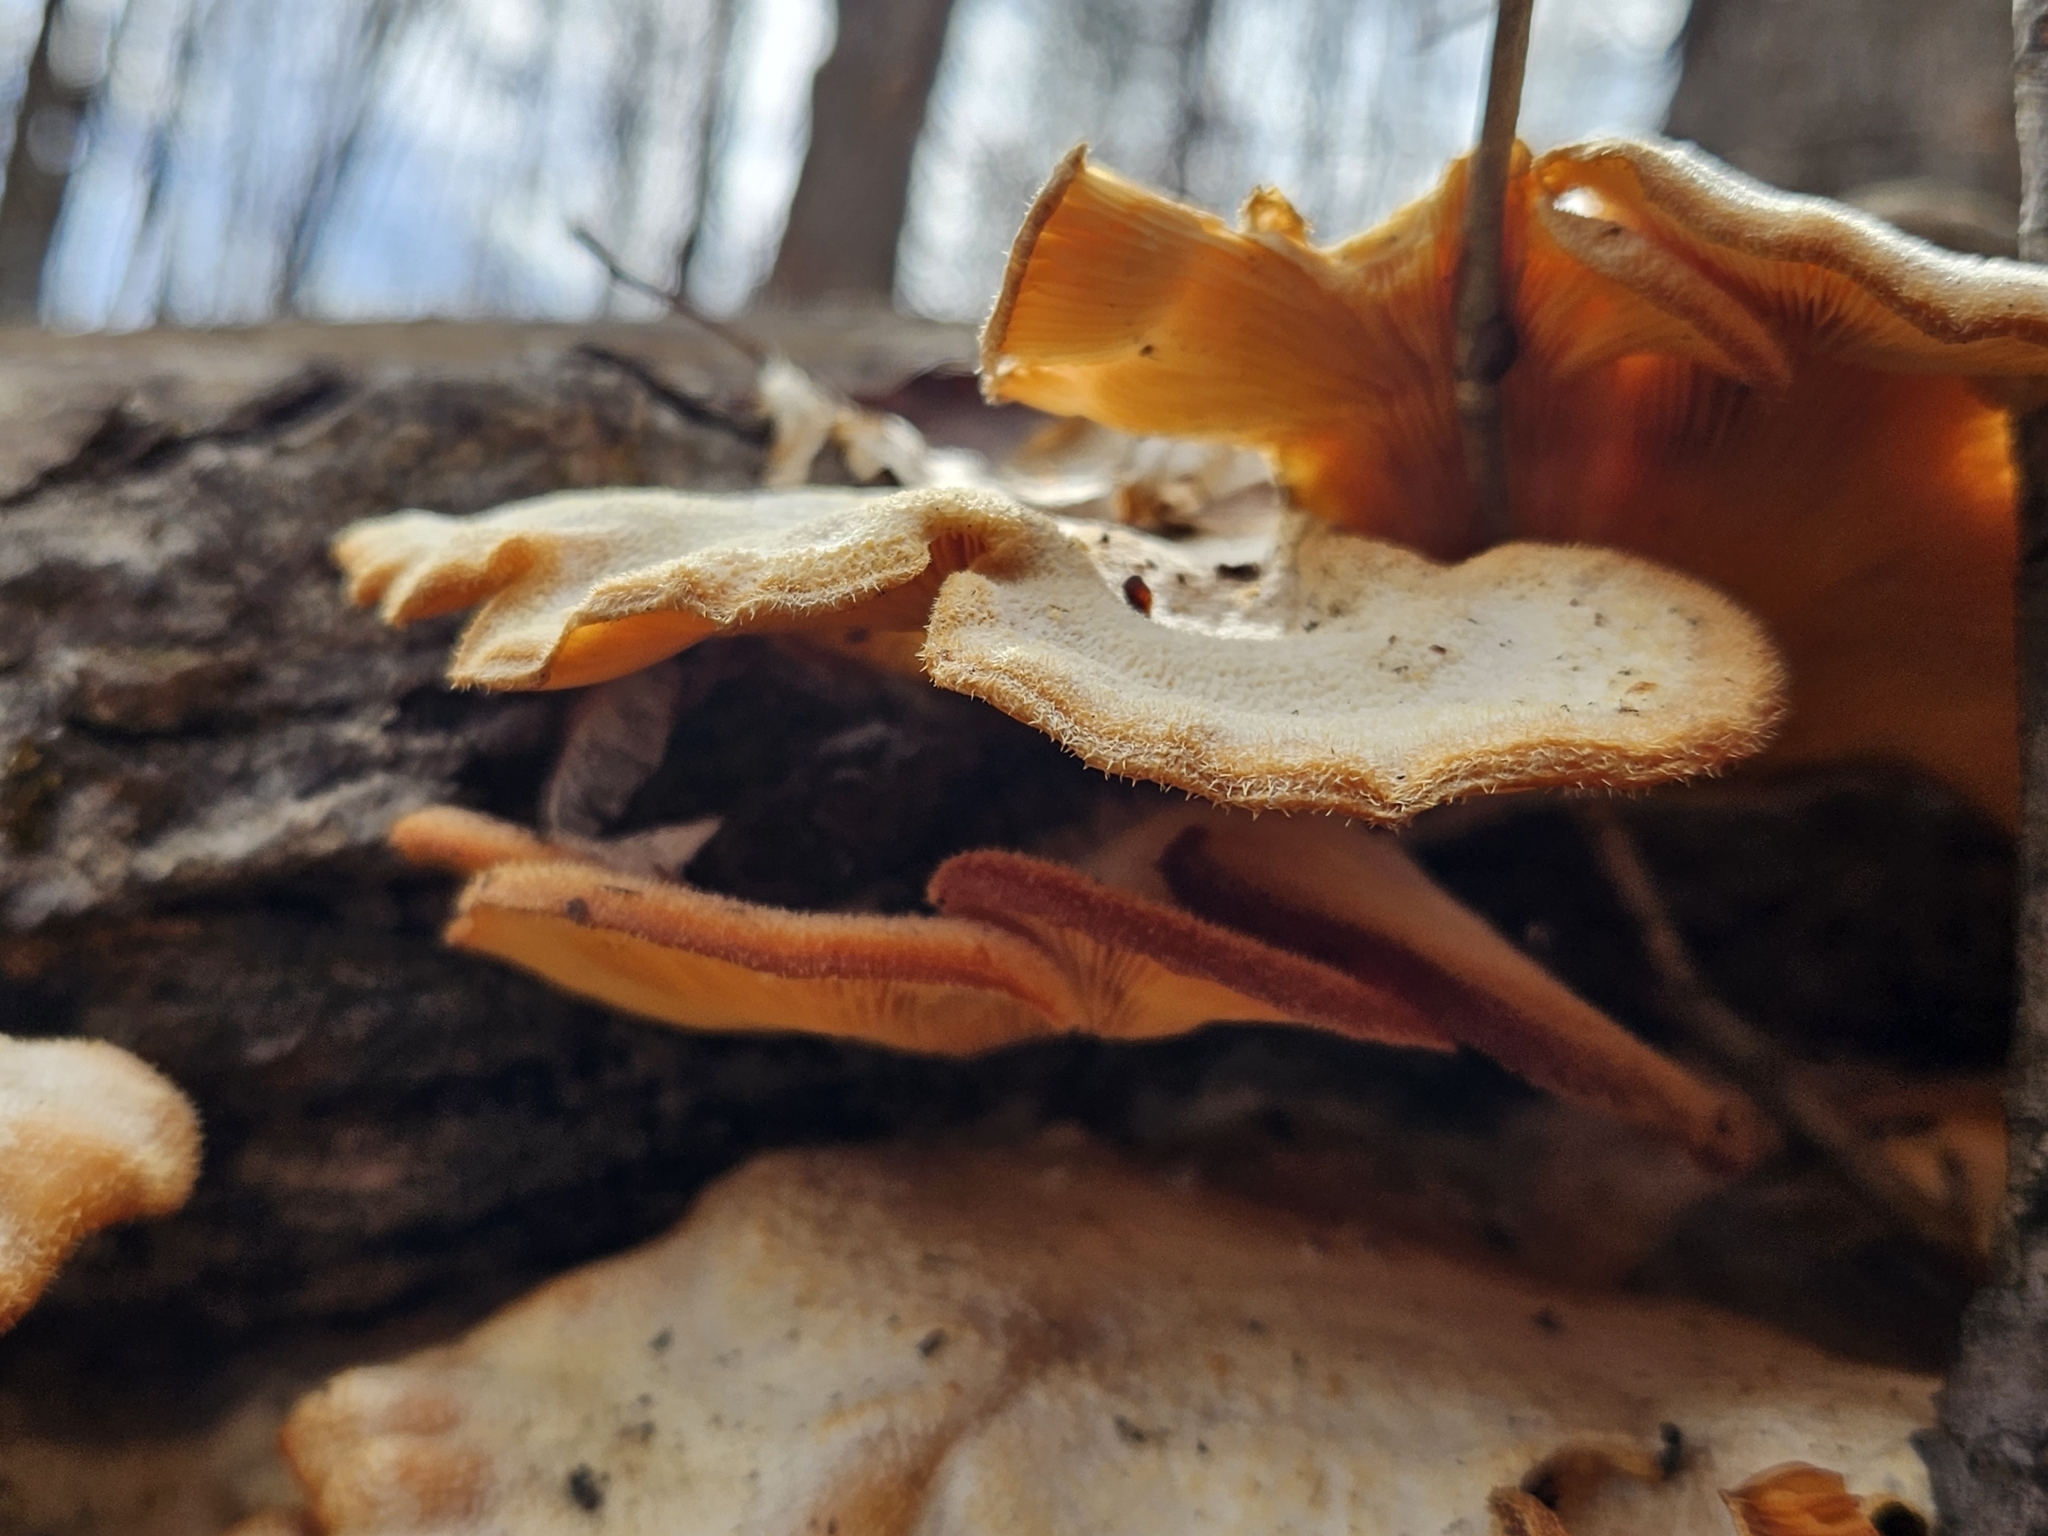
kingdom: Fungi
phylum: Basidiomycota
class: Agaricomycetes
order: Agaricales
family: Phyllotopsidaceae
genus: Phyllotopsis
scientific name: Phyllotopsis nidulans
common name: Orange mock oyster
